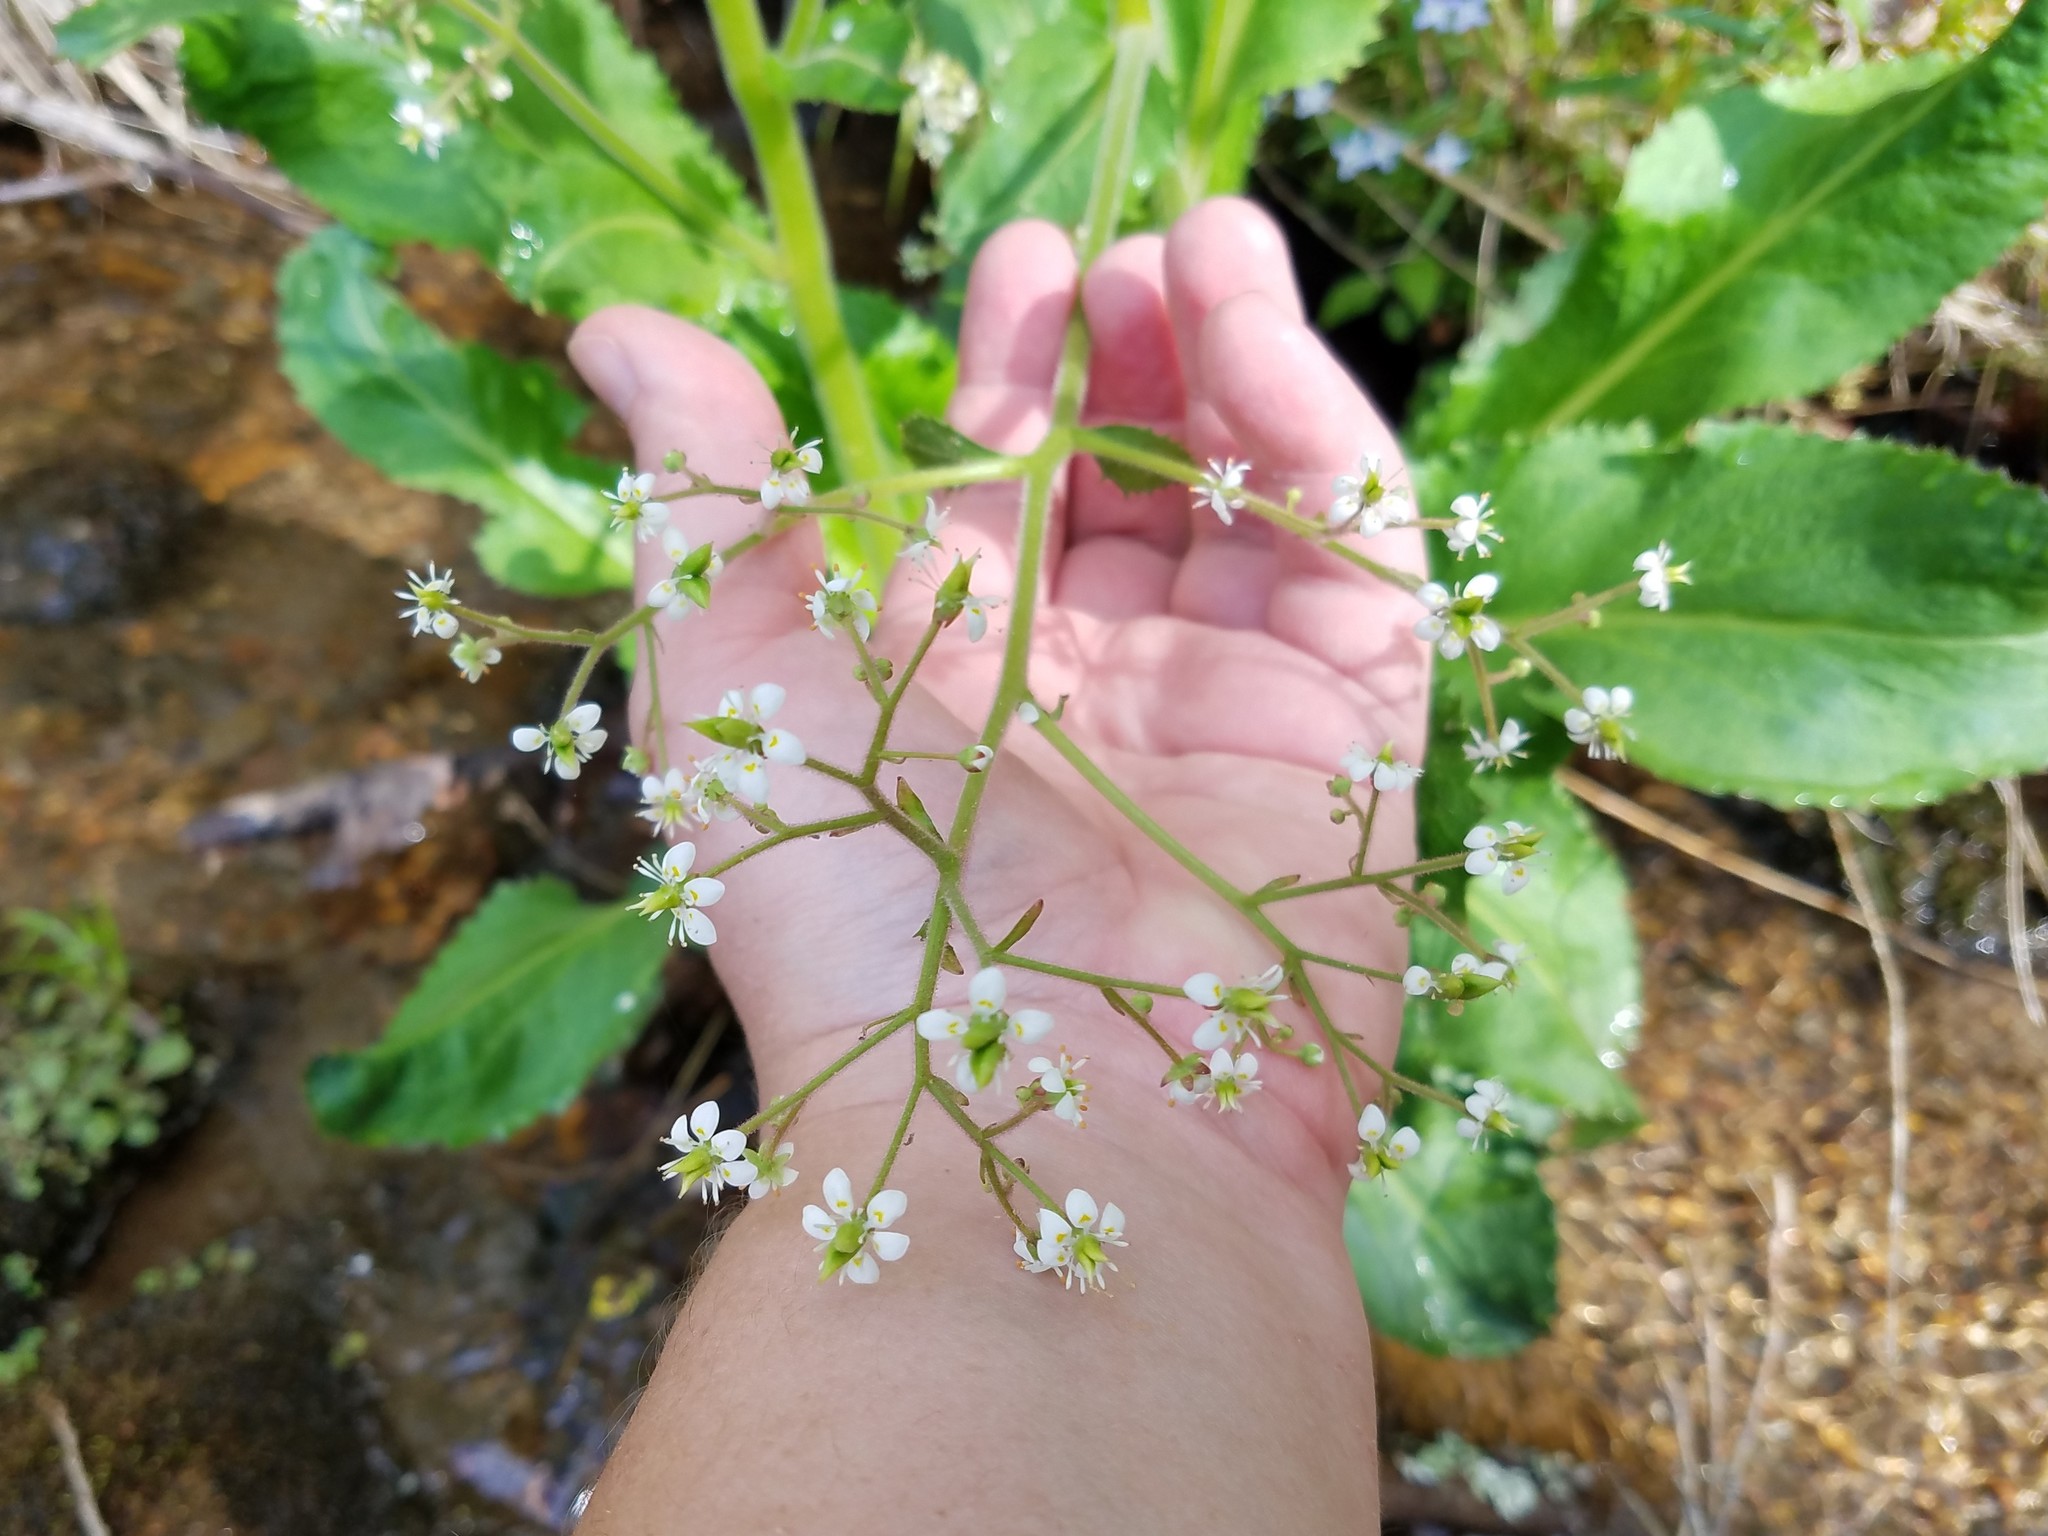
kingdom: Plantae
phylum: Tracheophyta
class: Magnoliopsida
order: Saxifragales
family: Saxifragaceae
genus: Micranthes
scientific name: Micranthes micranthidifolia
